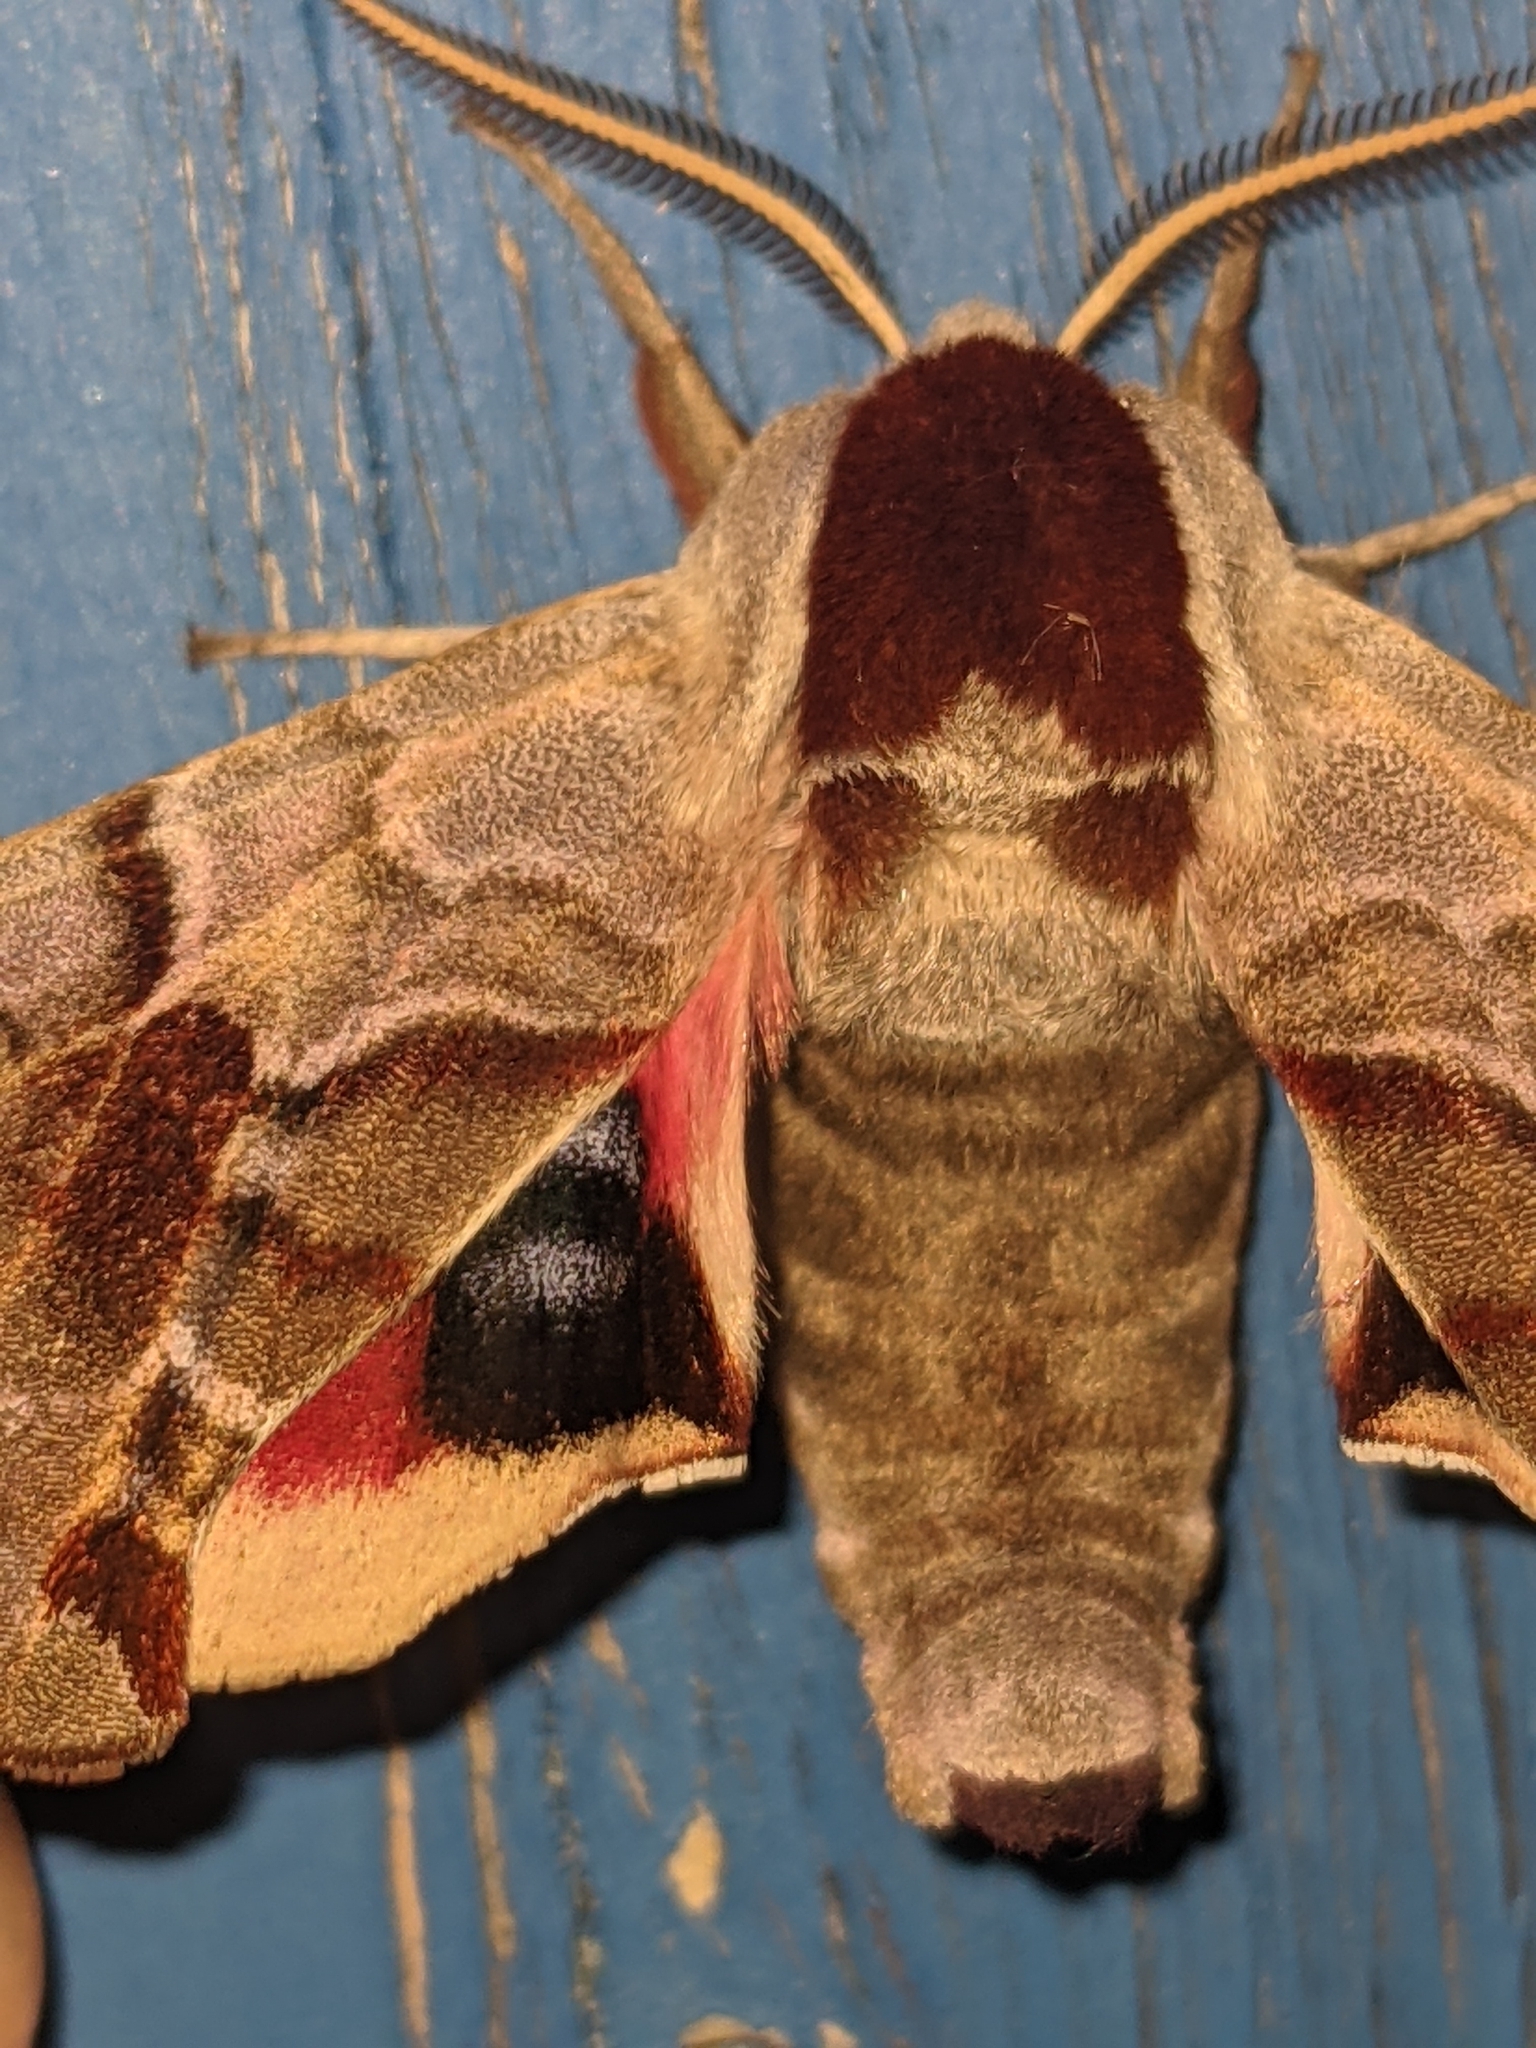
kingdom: Animalia
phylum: Arthropoda
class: Insecta
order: Lepidoptera
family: Sphingidae
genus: Smerinthus
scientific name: Smerinthus jamaicensis
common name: Twin spotted sphinx
